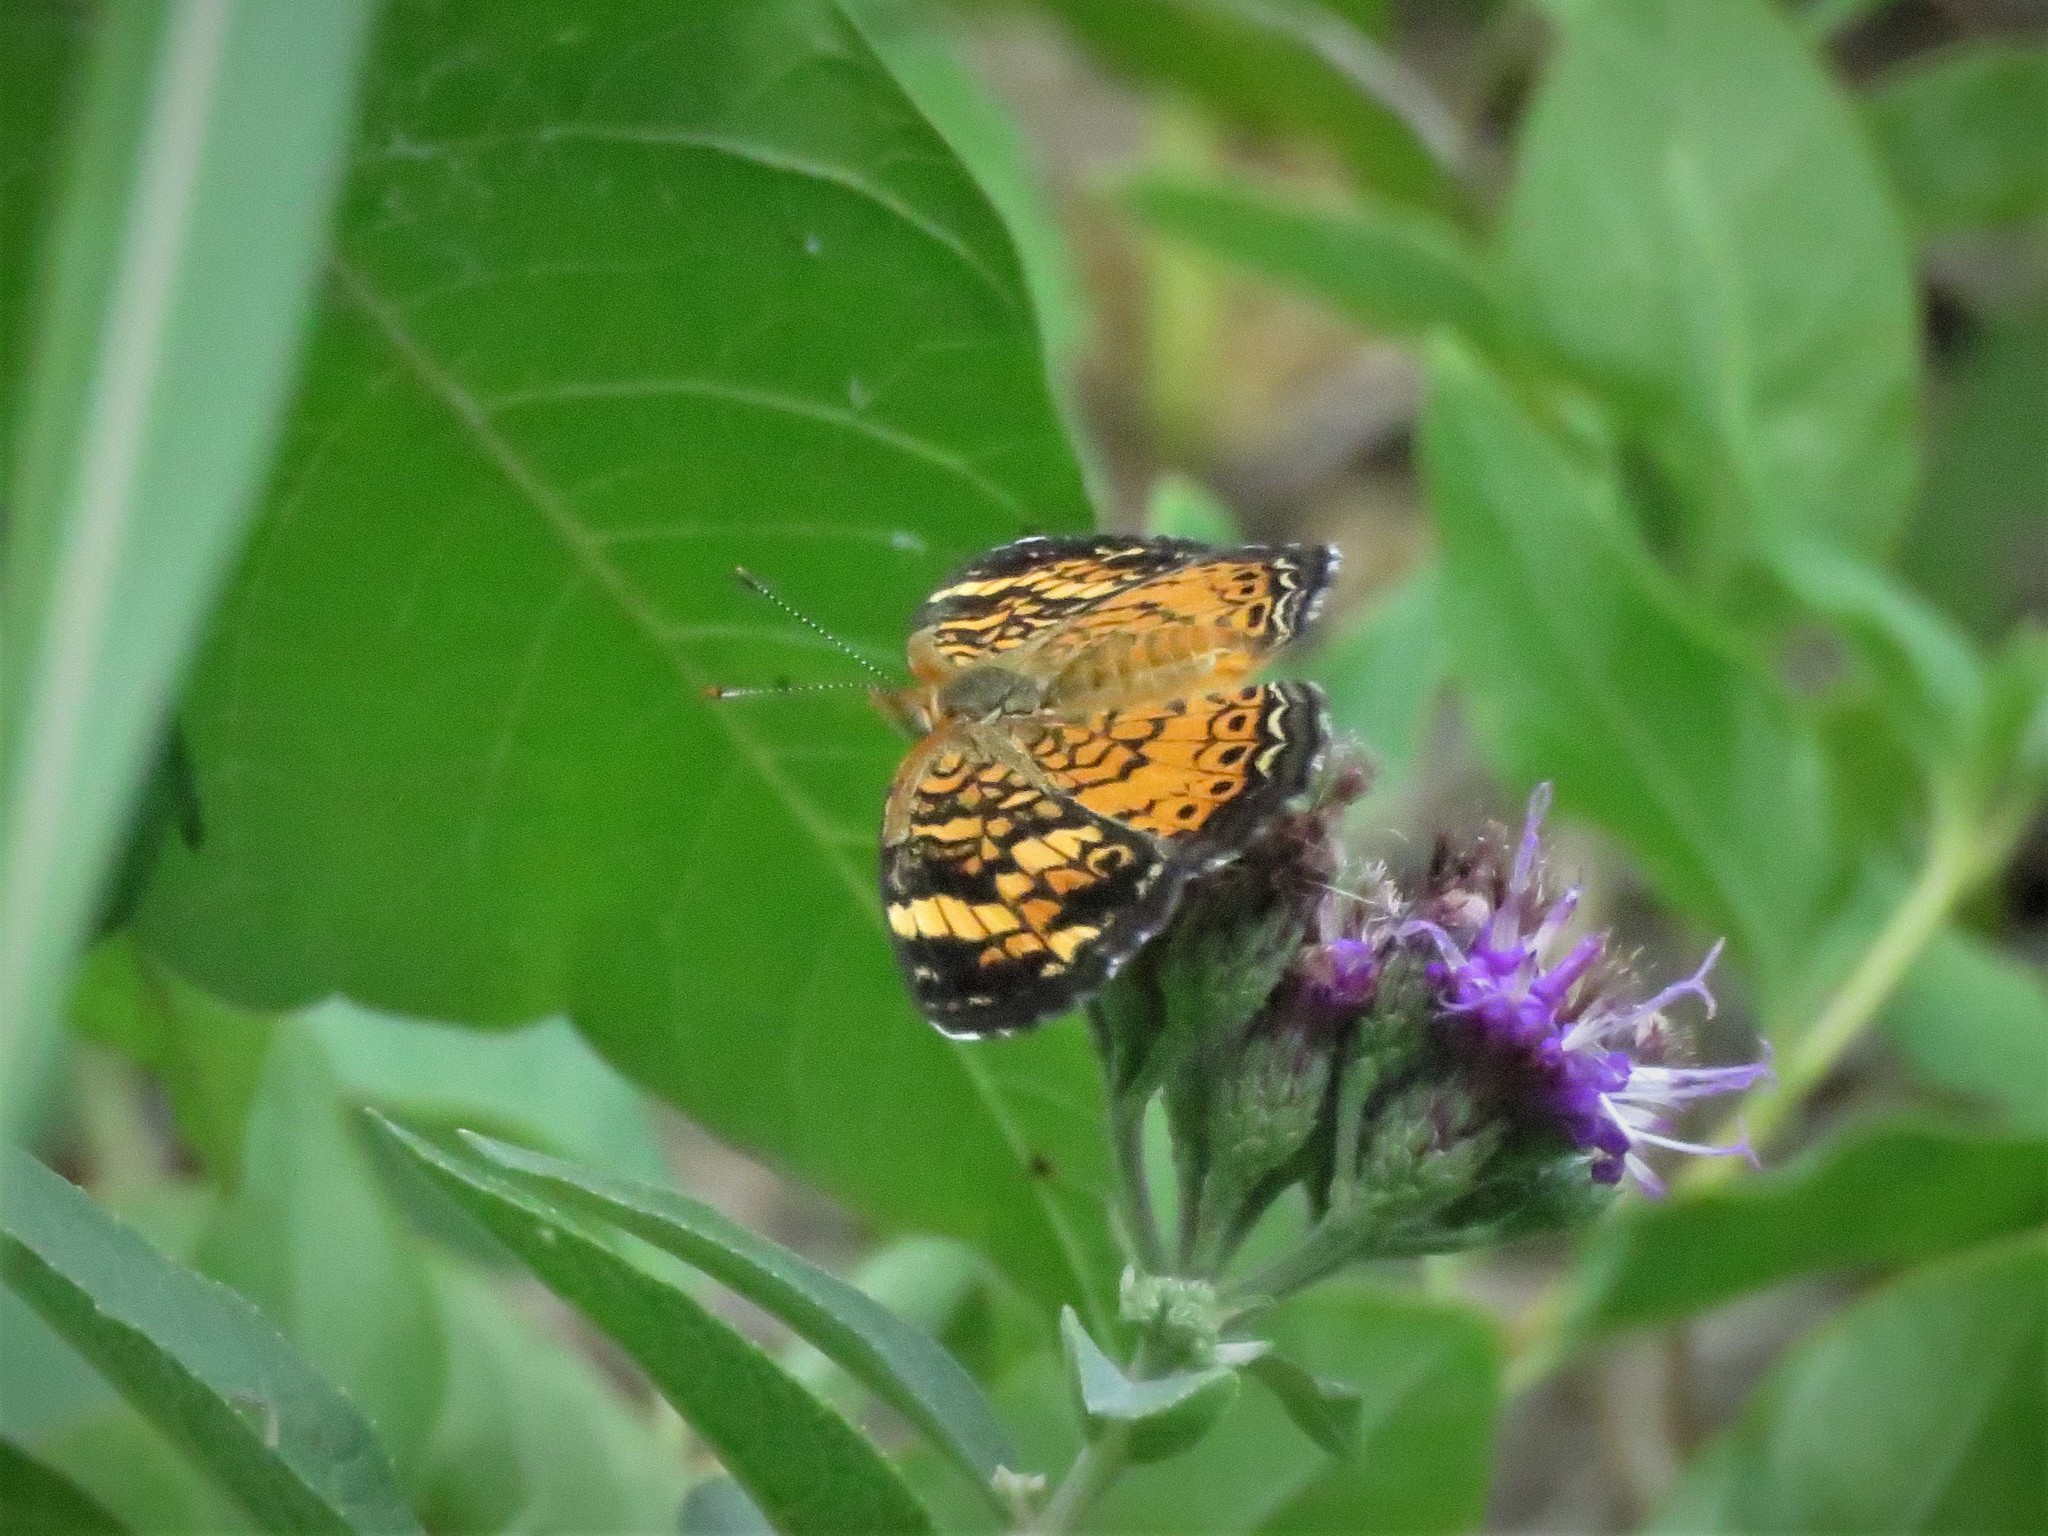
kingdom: Animalia
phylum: Arthropoda
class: Insecta
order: Lepidoptera
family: Nymphalidae
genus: Phyciodes
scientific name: Phyciodes tharos
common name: Pearl crescent
